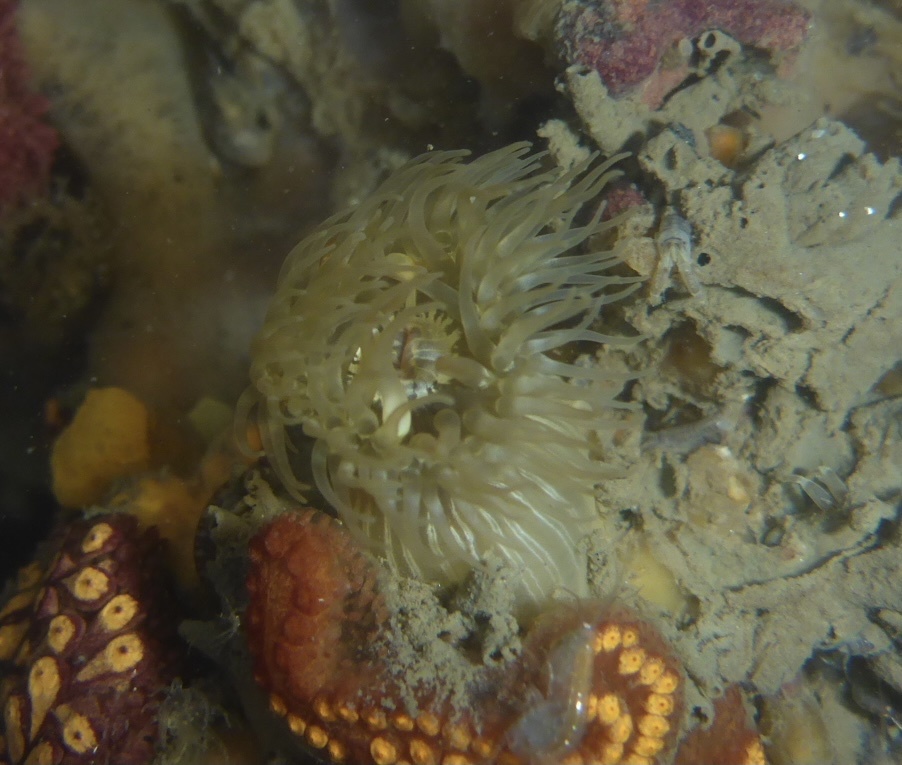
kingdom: Animalia
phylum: Cnidaria
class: Anthozoa
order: Actiniaria
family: Diadumenidae
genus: Diadumene
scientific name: Diadumene franciscana
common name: San francisco anemone
